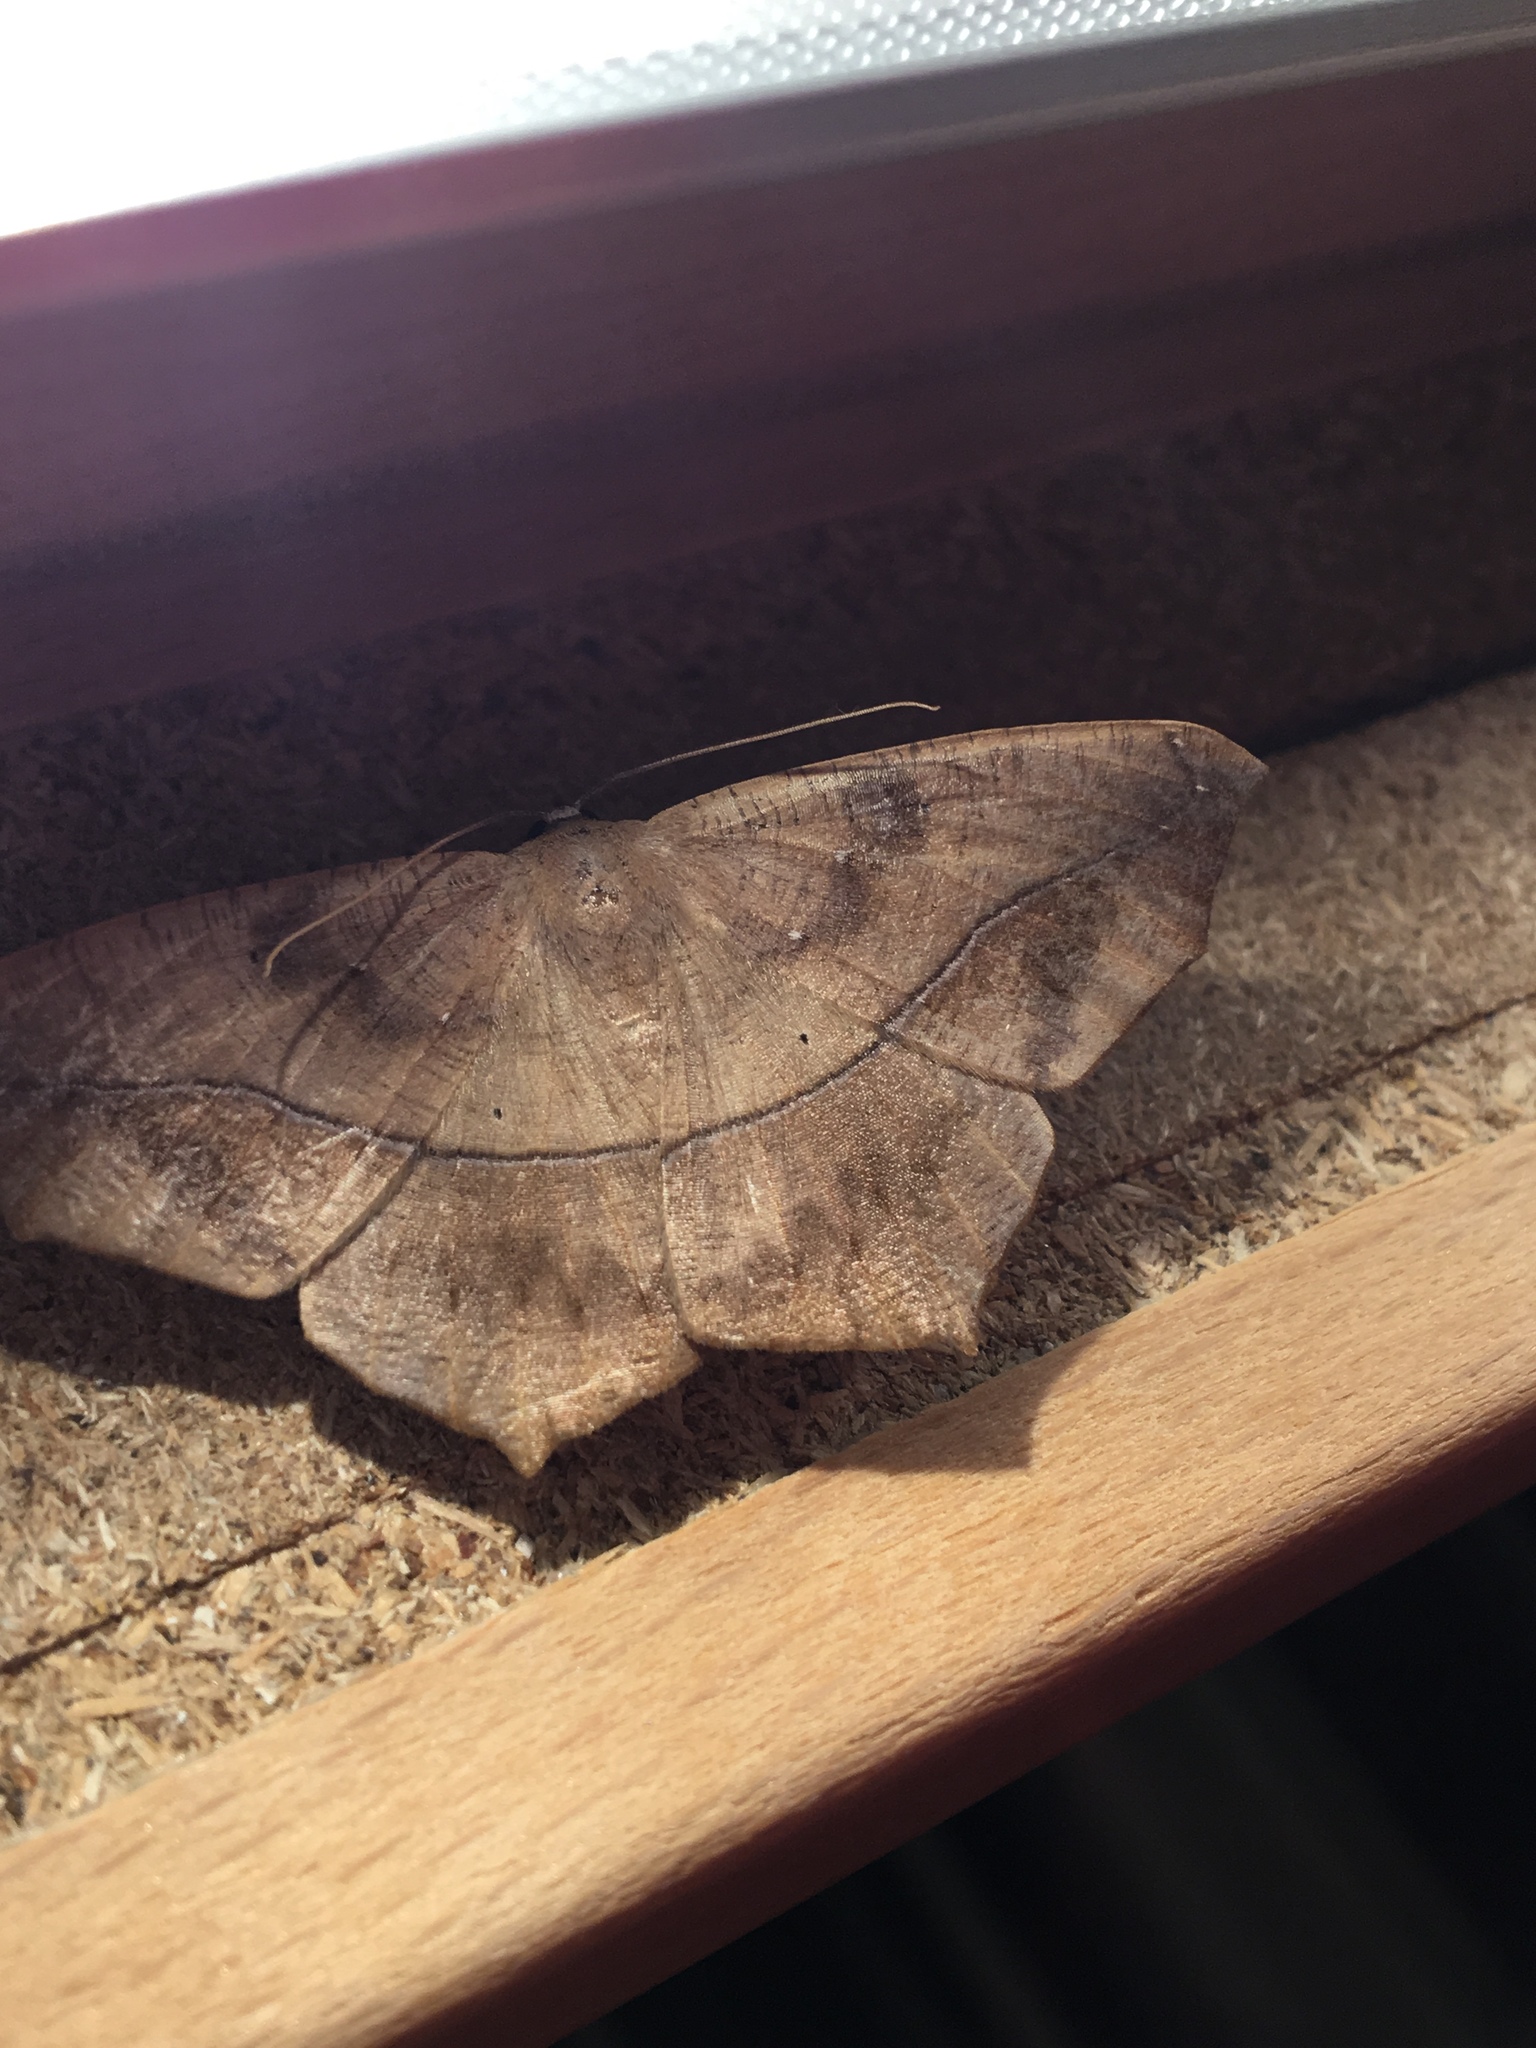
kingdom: Animalia
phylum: Arthropoda
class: Insecta
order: Lepidoptera
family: Geometridae
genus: Prochoerodes
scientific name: Prochoerodes lineola
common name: Large maple spanworm
